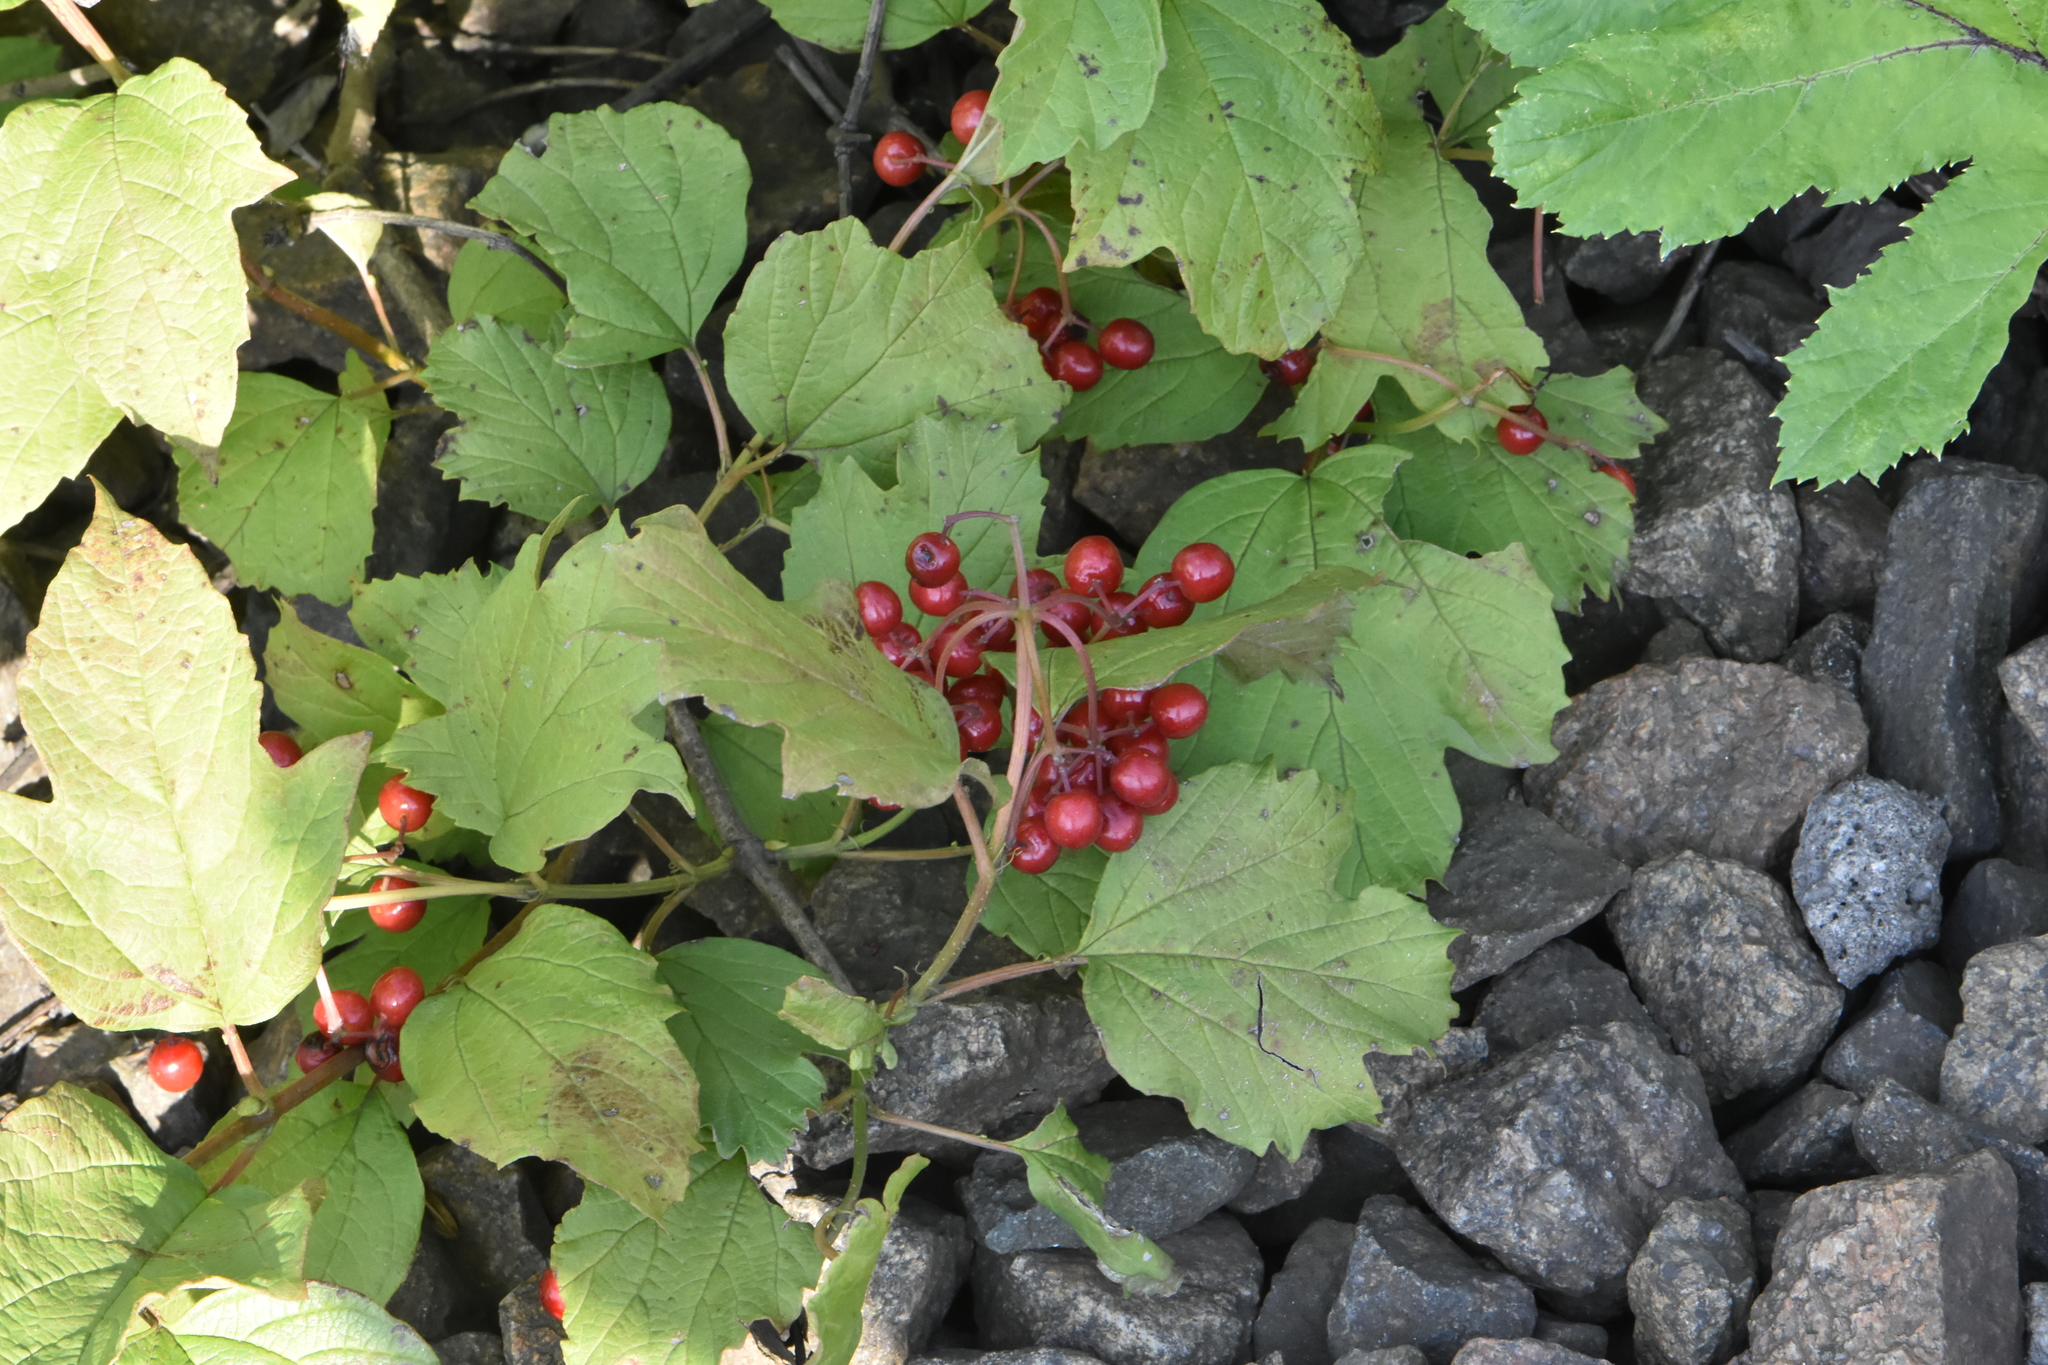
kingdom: Plantae
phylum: Tracheophyta
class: Magnoliopsida
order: Dipsacales
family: Viburnaceae
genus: Viburnum
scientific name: Viburnum opulus
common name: Guelder-rose
